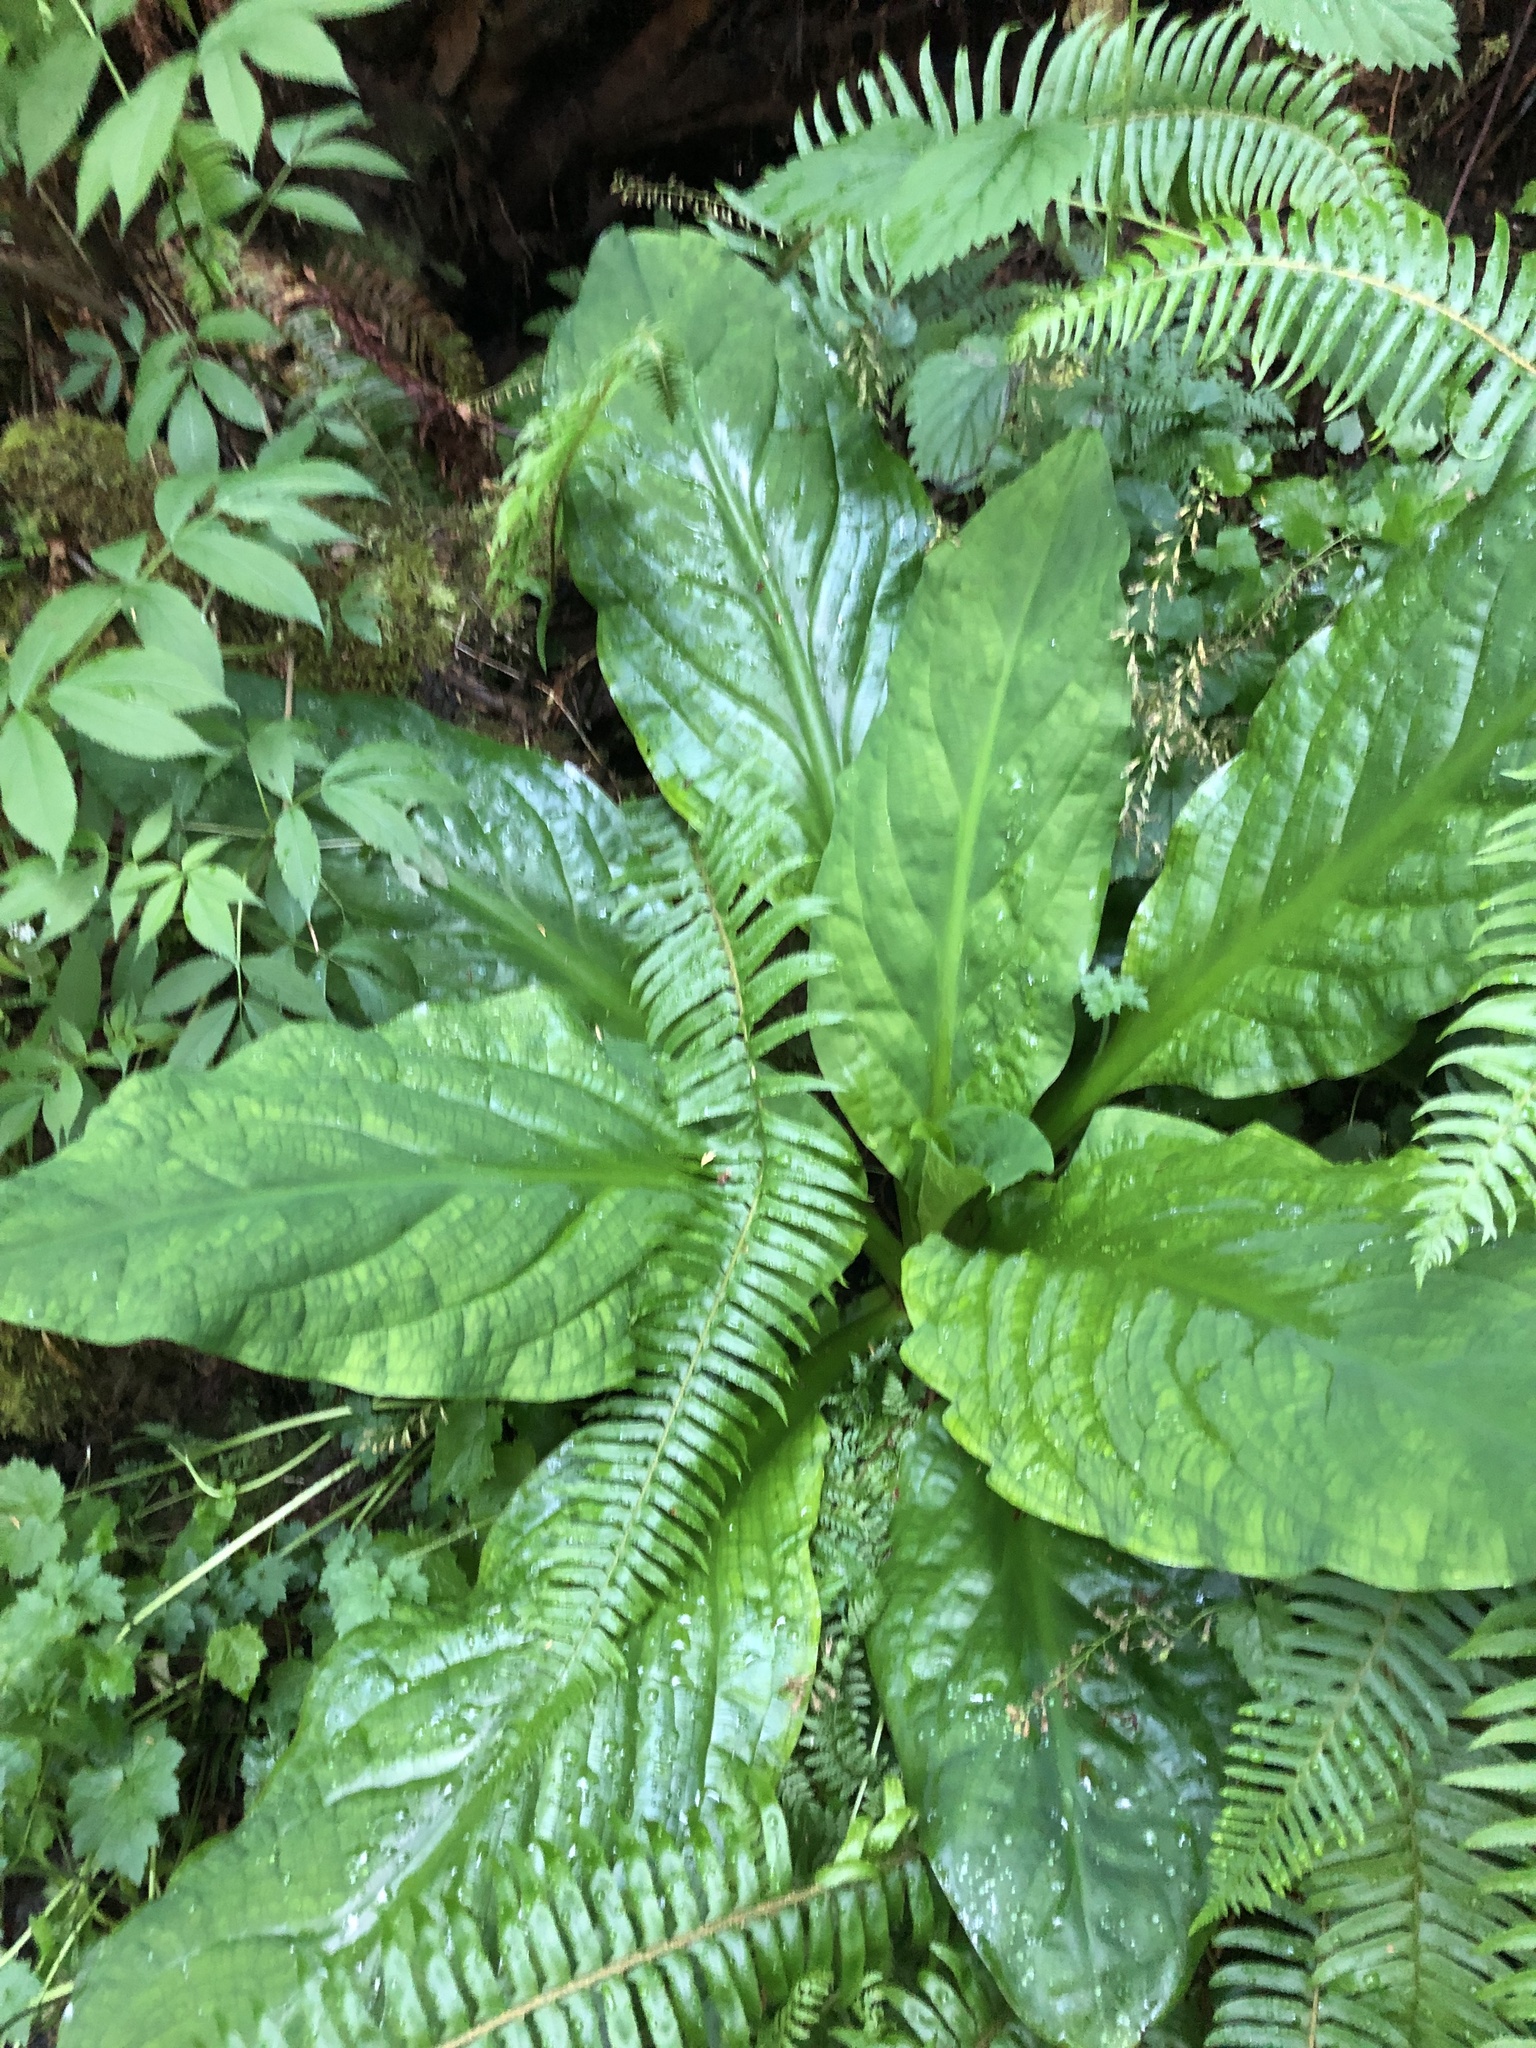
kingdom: Plantae
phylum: Tracheophyta
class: Liliopsida
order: Alismatales
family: Araceae
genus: Lysichiton
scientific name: Lysichiton americanus
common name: American skunk cabbage
